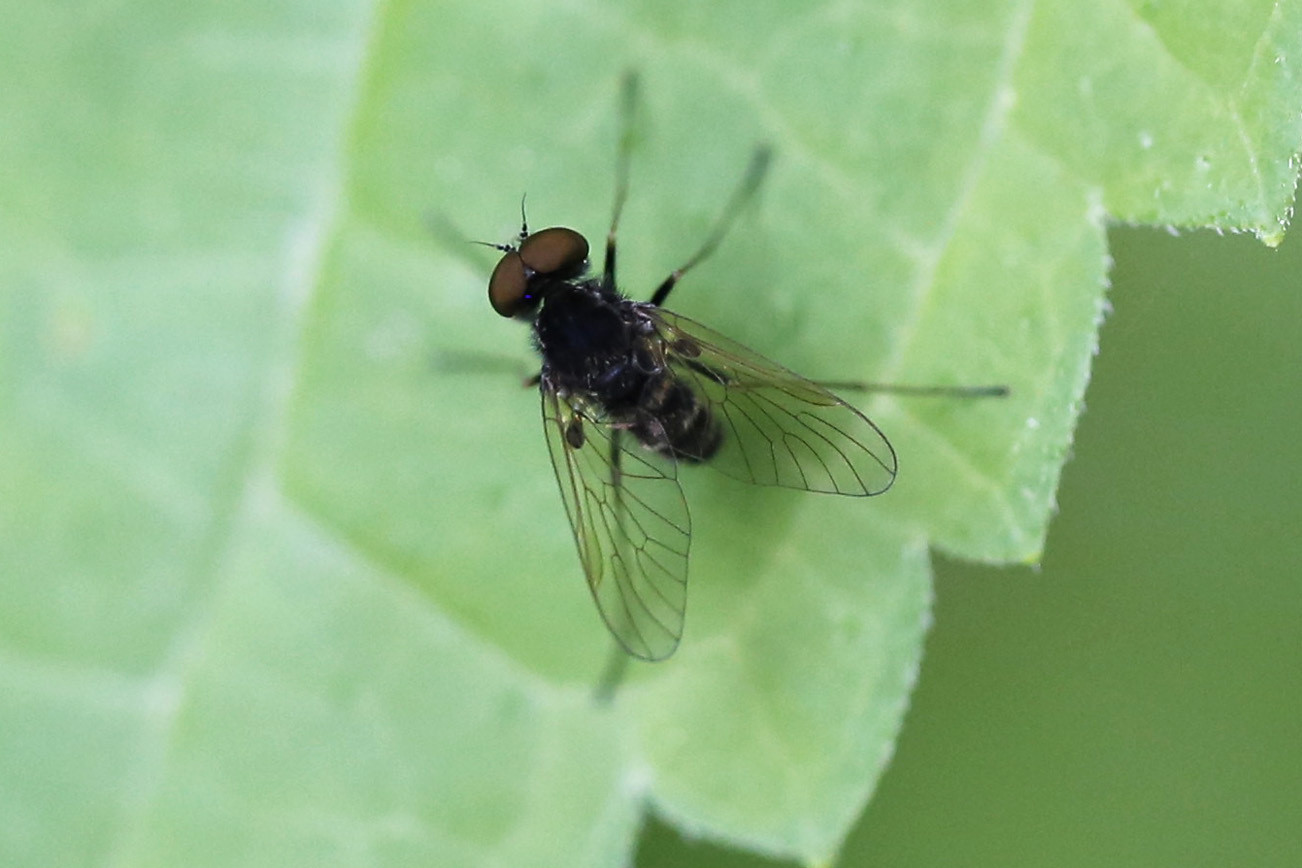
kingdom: Animalia
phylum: Arthropoda
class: Insecta
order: Diptera
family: Rhagionidae
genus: Chrysopilus
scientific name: Chrysopilus proximus
